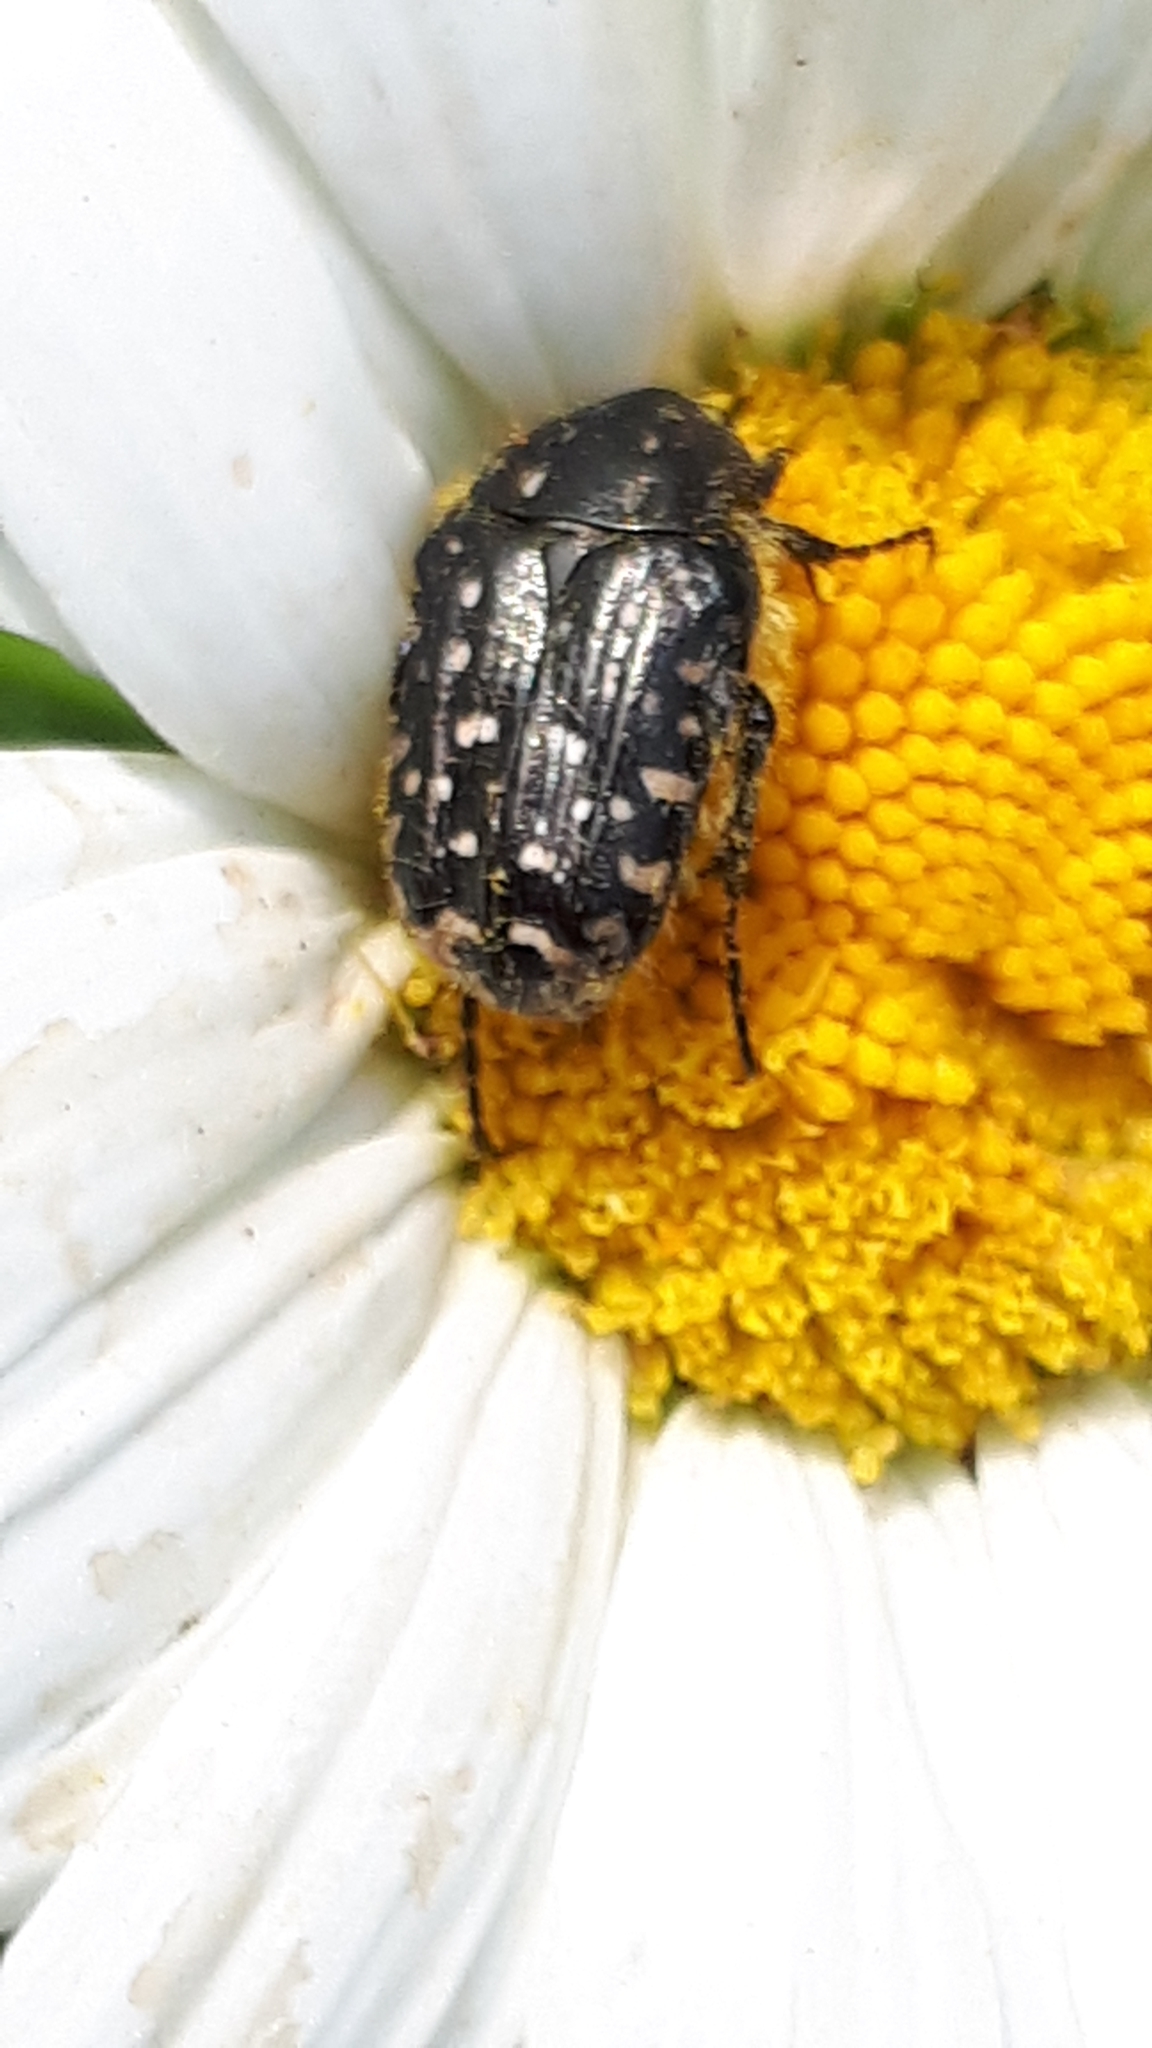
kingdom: Animalia
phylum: Arthropoda
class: Insecta
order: Coleoptera
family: Scarabaeidae
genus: Oxythyrea
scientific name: Oxythyrea funesta
